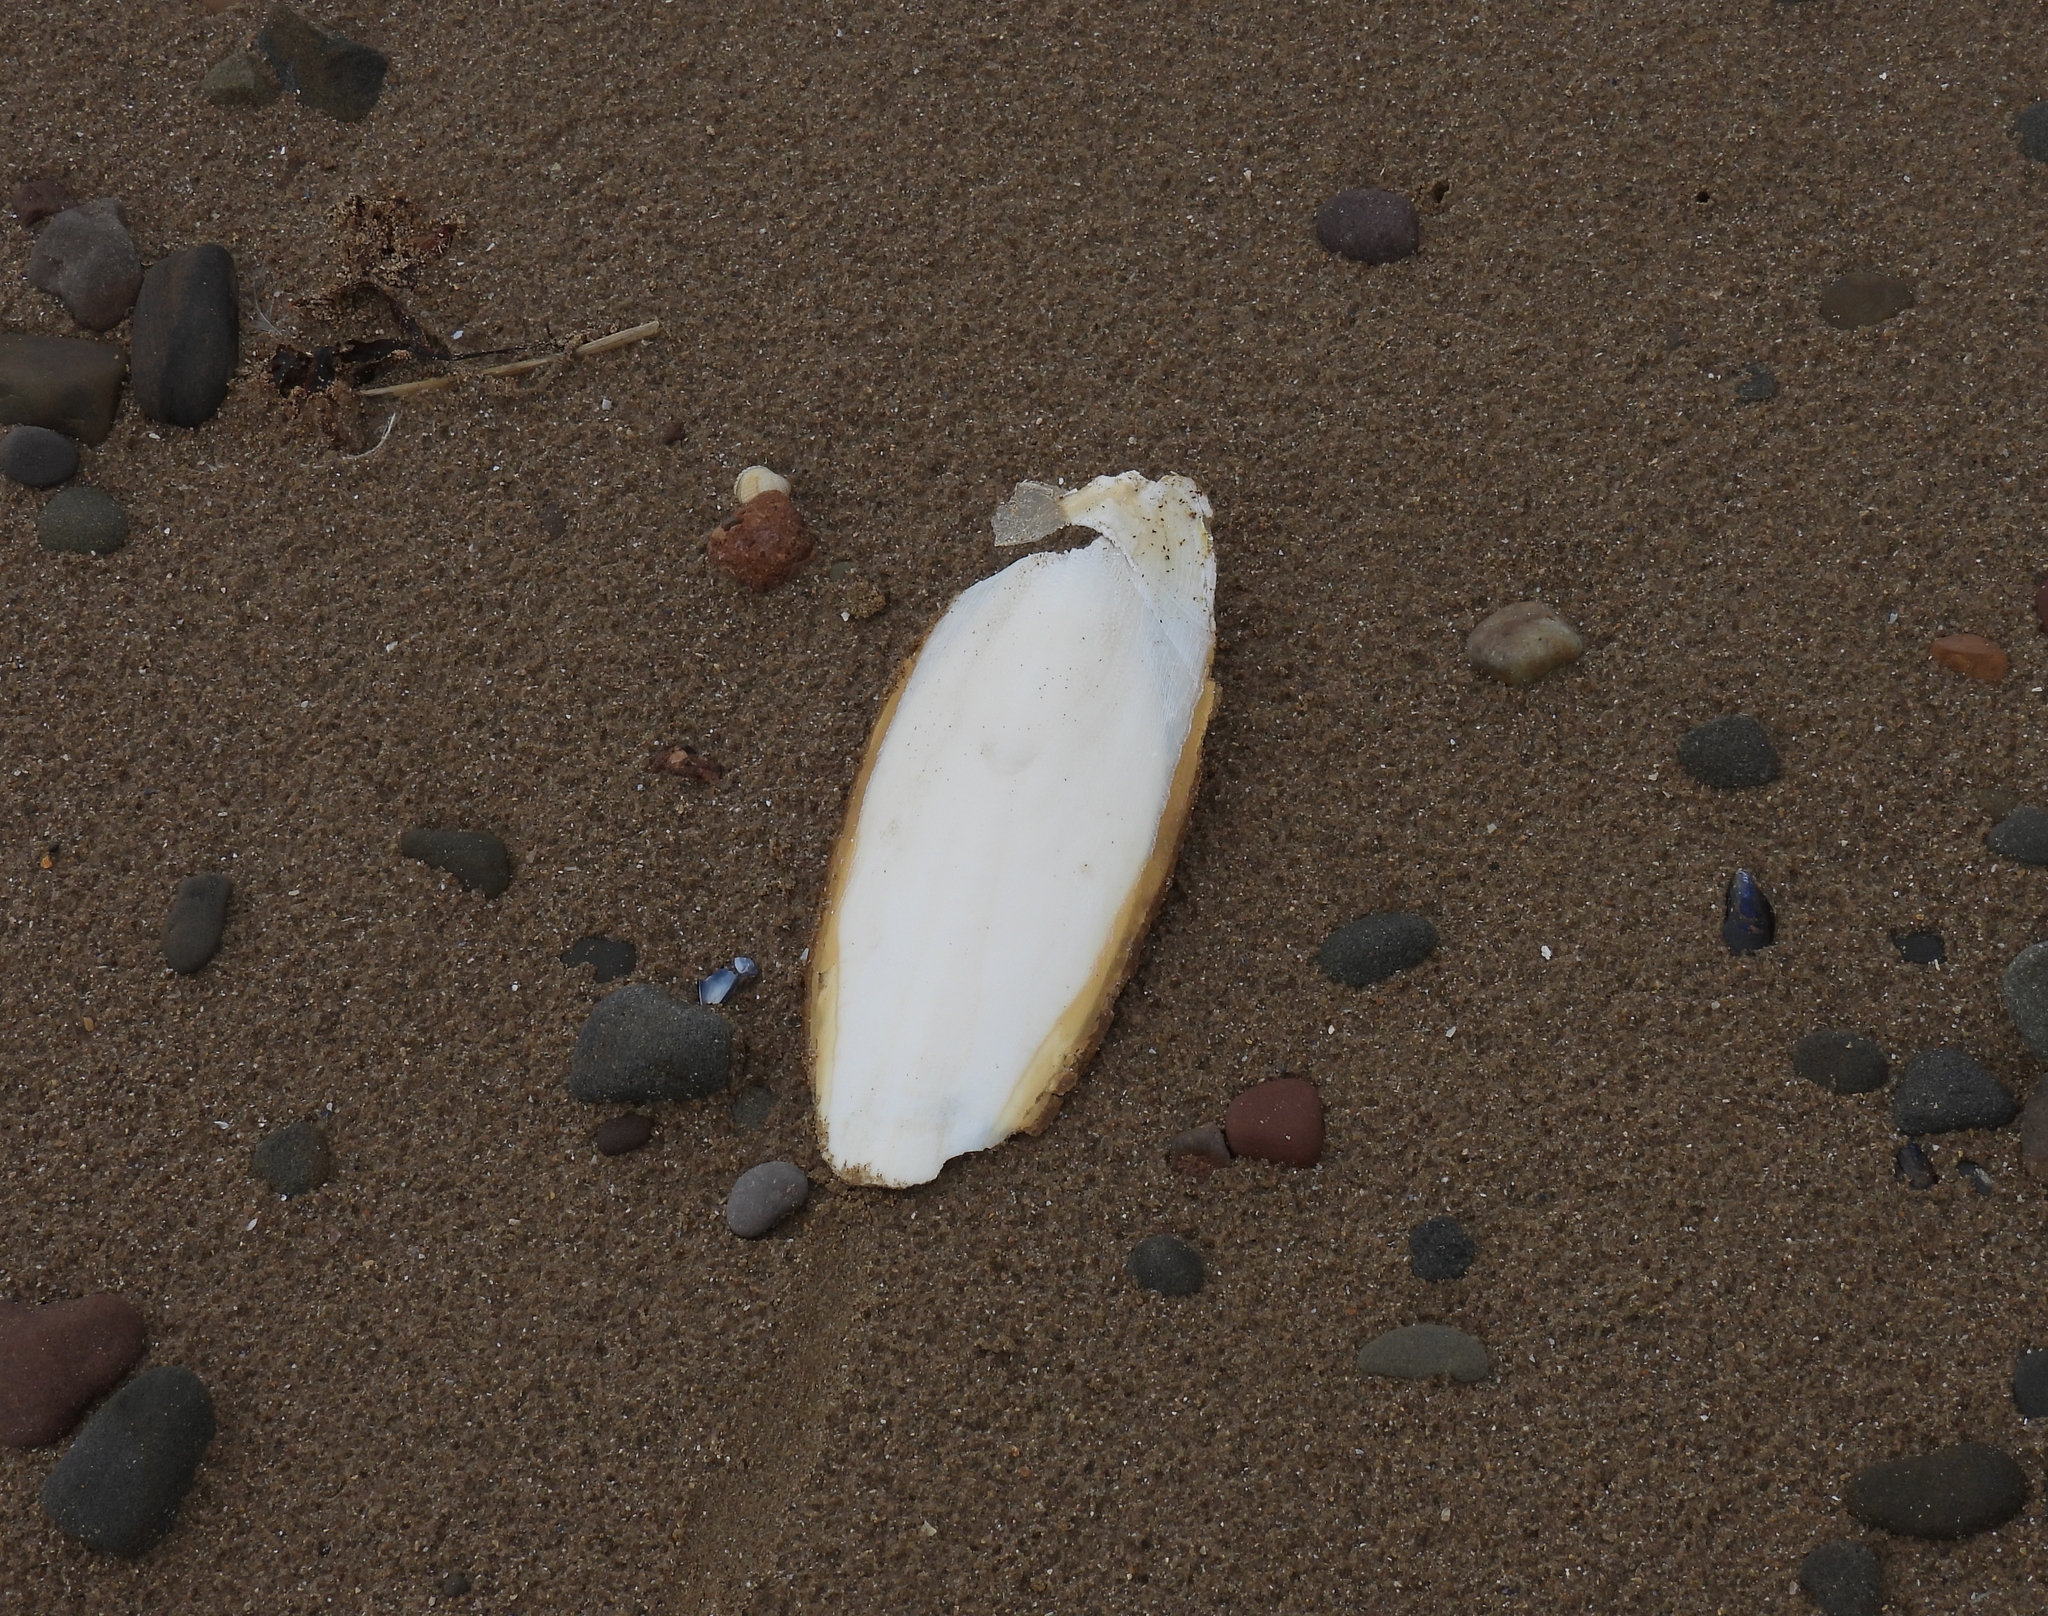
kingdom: Animalia
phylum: Mollusca
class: Cephalopoda
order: Sepiida
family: Sepiidae
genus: Sepia
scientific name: Sepia officinalis
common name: Common cuttlefish
